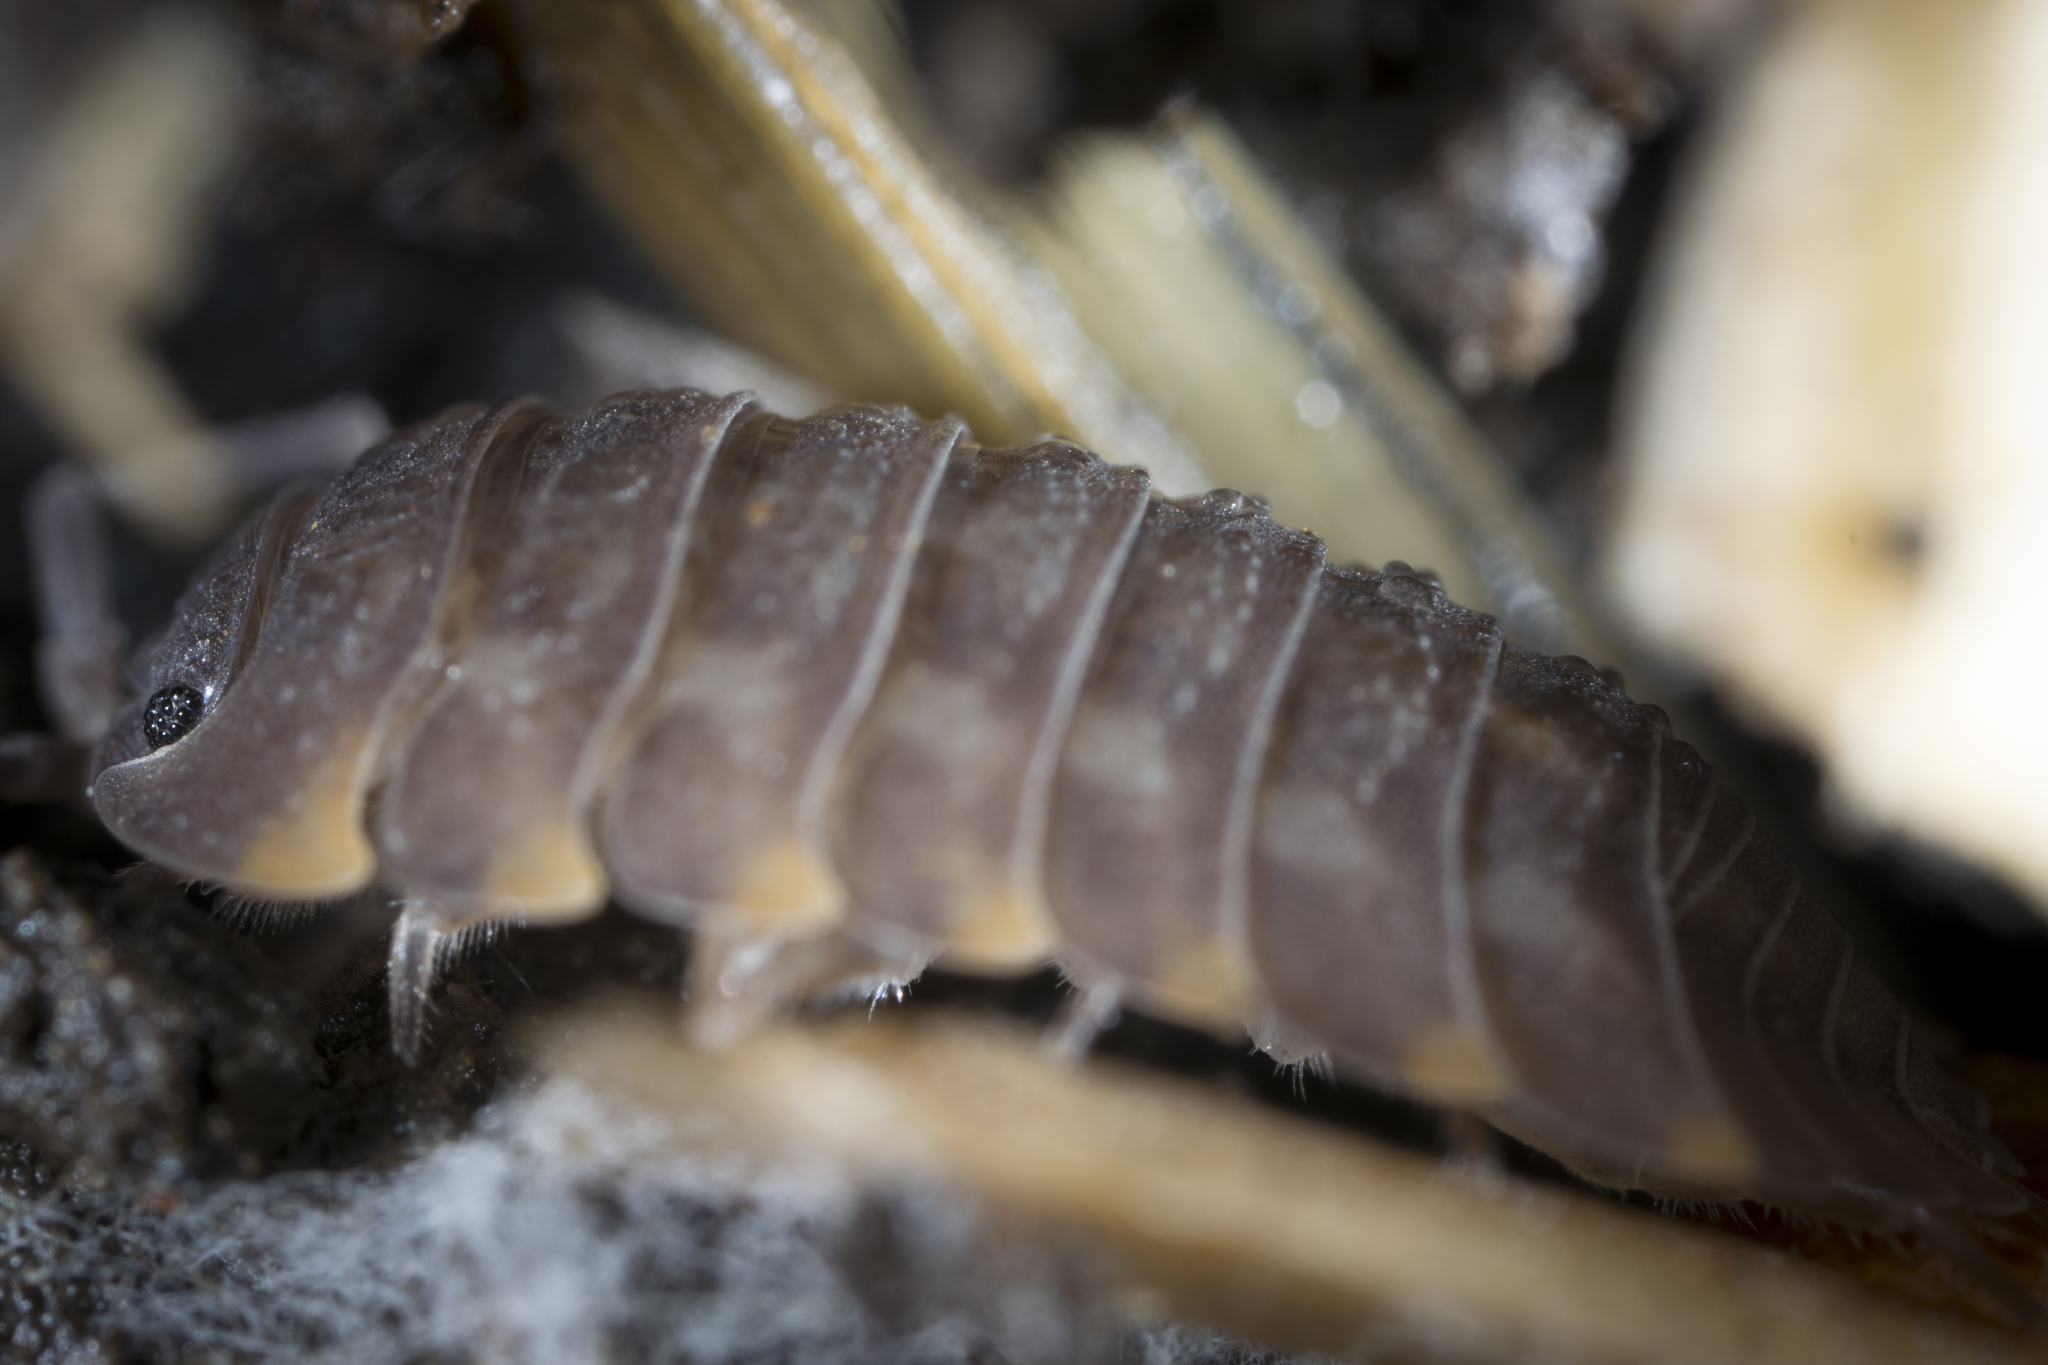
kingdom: Animalia
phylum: Arthropoda
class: Malacostraca
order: Isopoda
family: Trachelipodidae
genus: Trachelipus
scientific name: Trachelipus ratzeburgii
